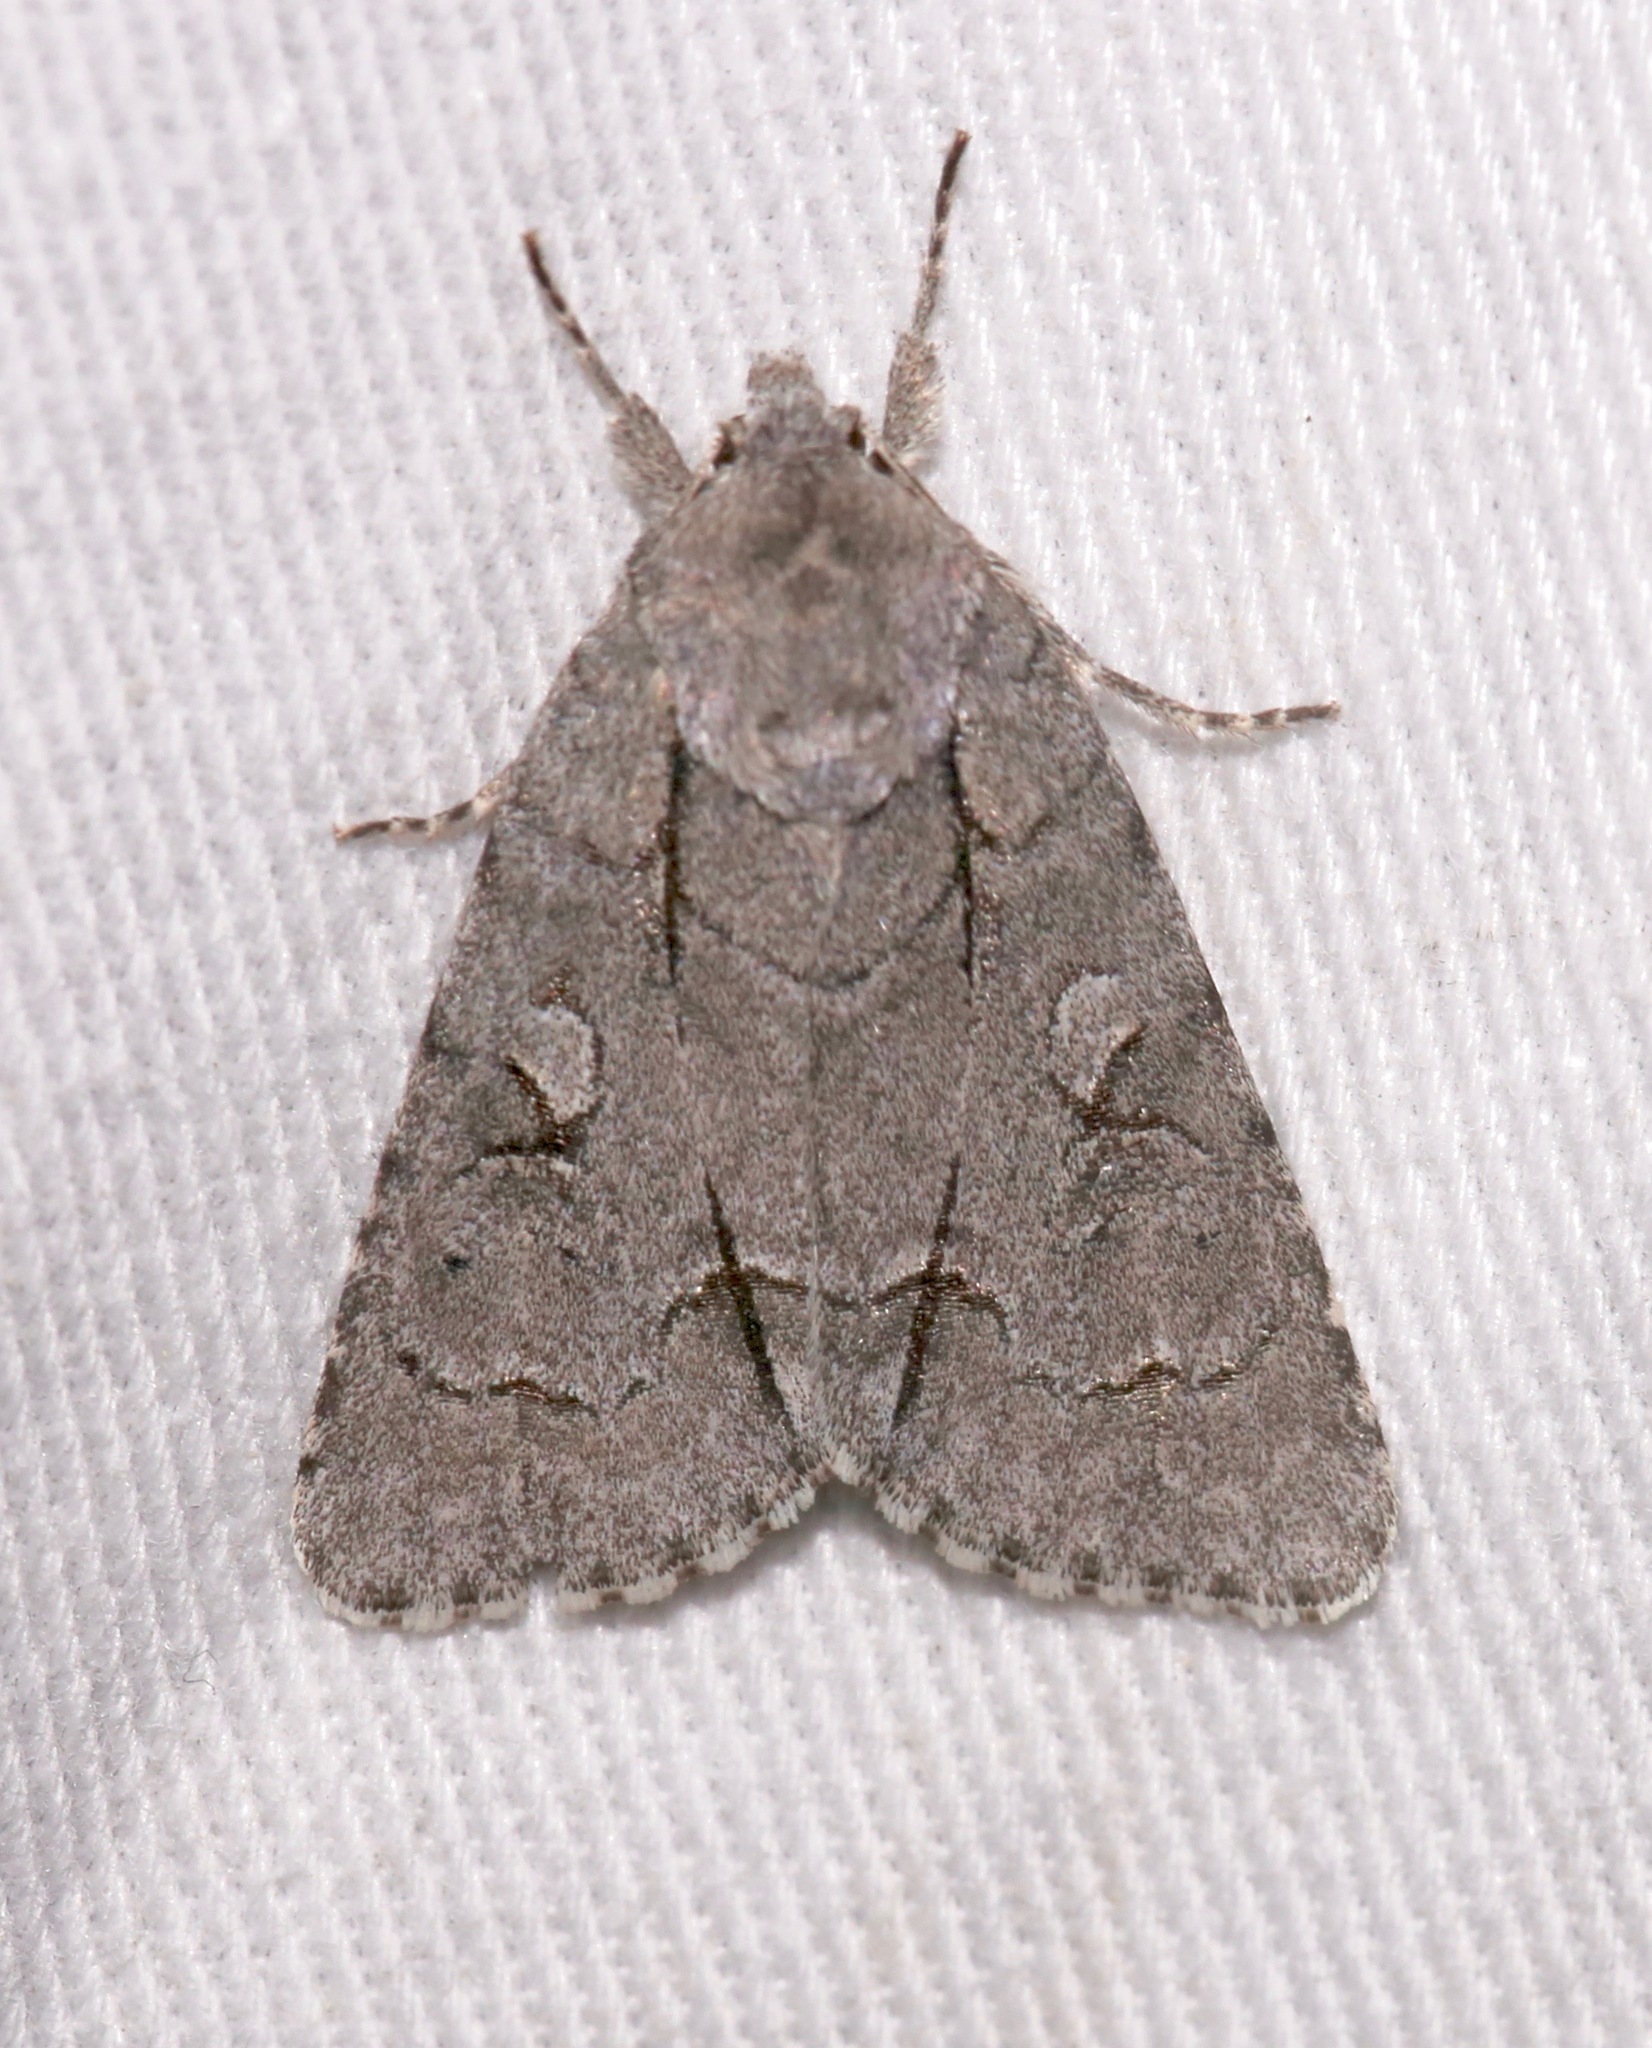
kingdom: Animalia
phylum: Arthropoda
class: Insecta
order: Lepidoptera
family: Noctuidae
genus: Acronicta
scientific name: Acronicta radcliffei
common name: Radcliffe's dagger
